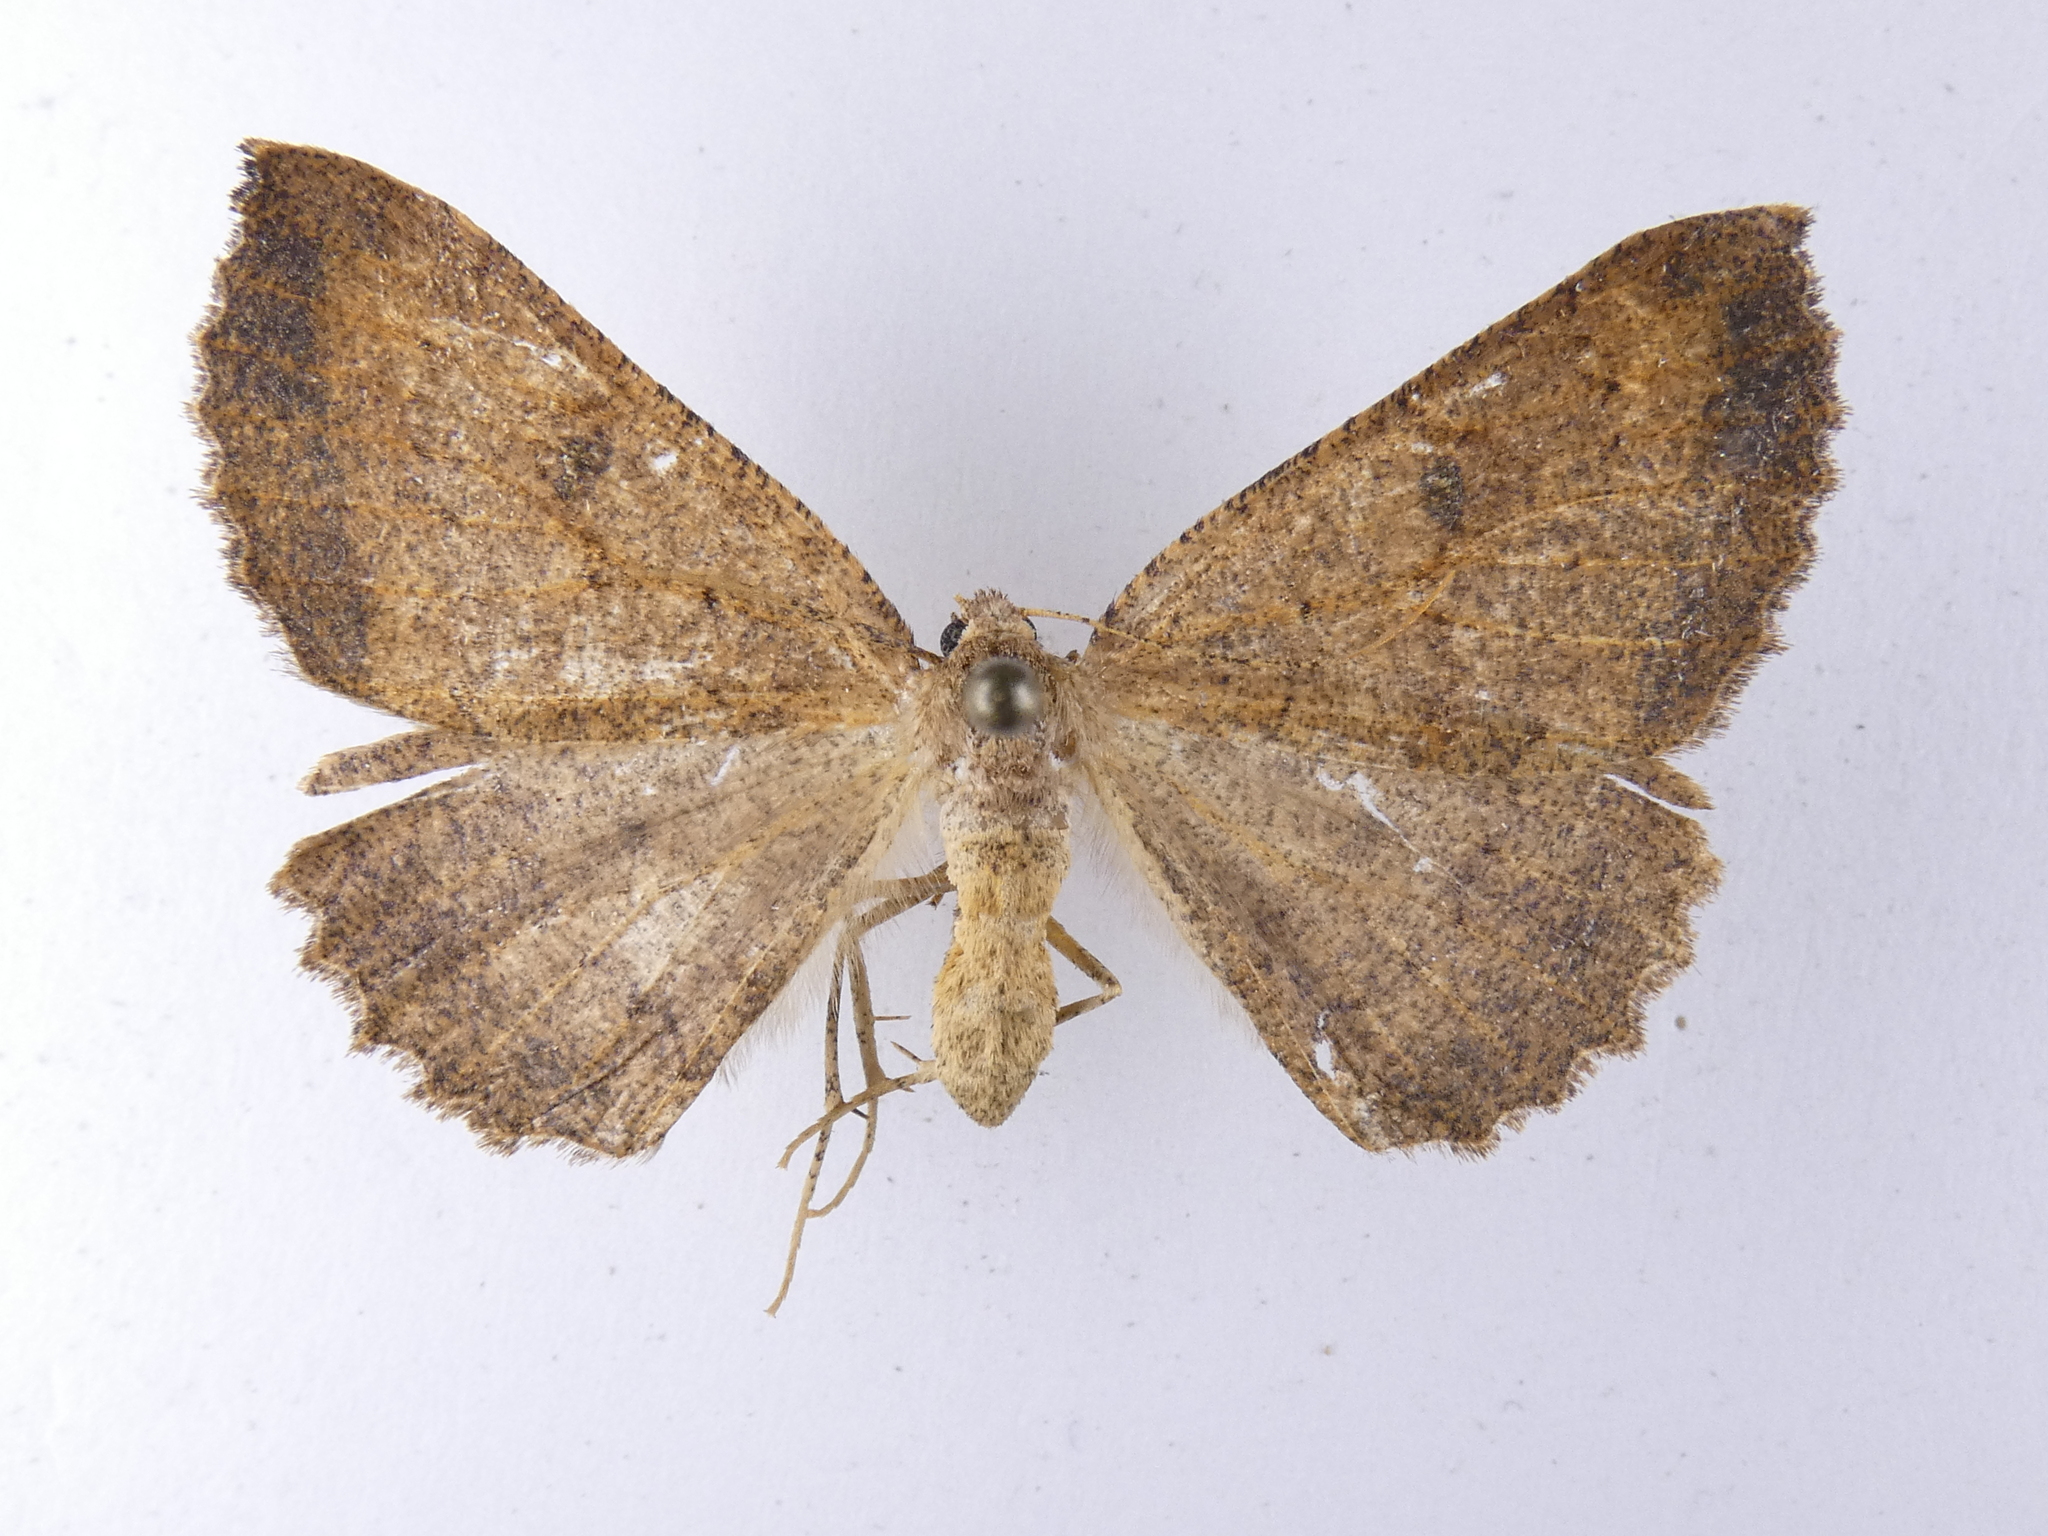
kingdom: Animalia
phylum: Arthropoda
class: Insecta
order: Lepidoptera
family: Geometridae
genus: Cleora
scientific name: Cleora scriptaria
